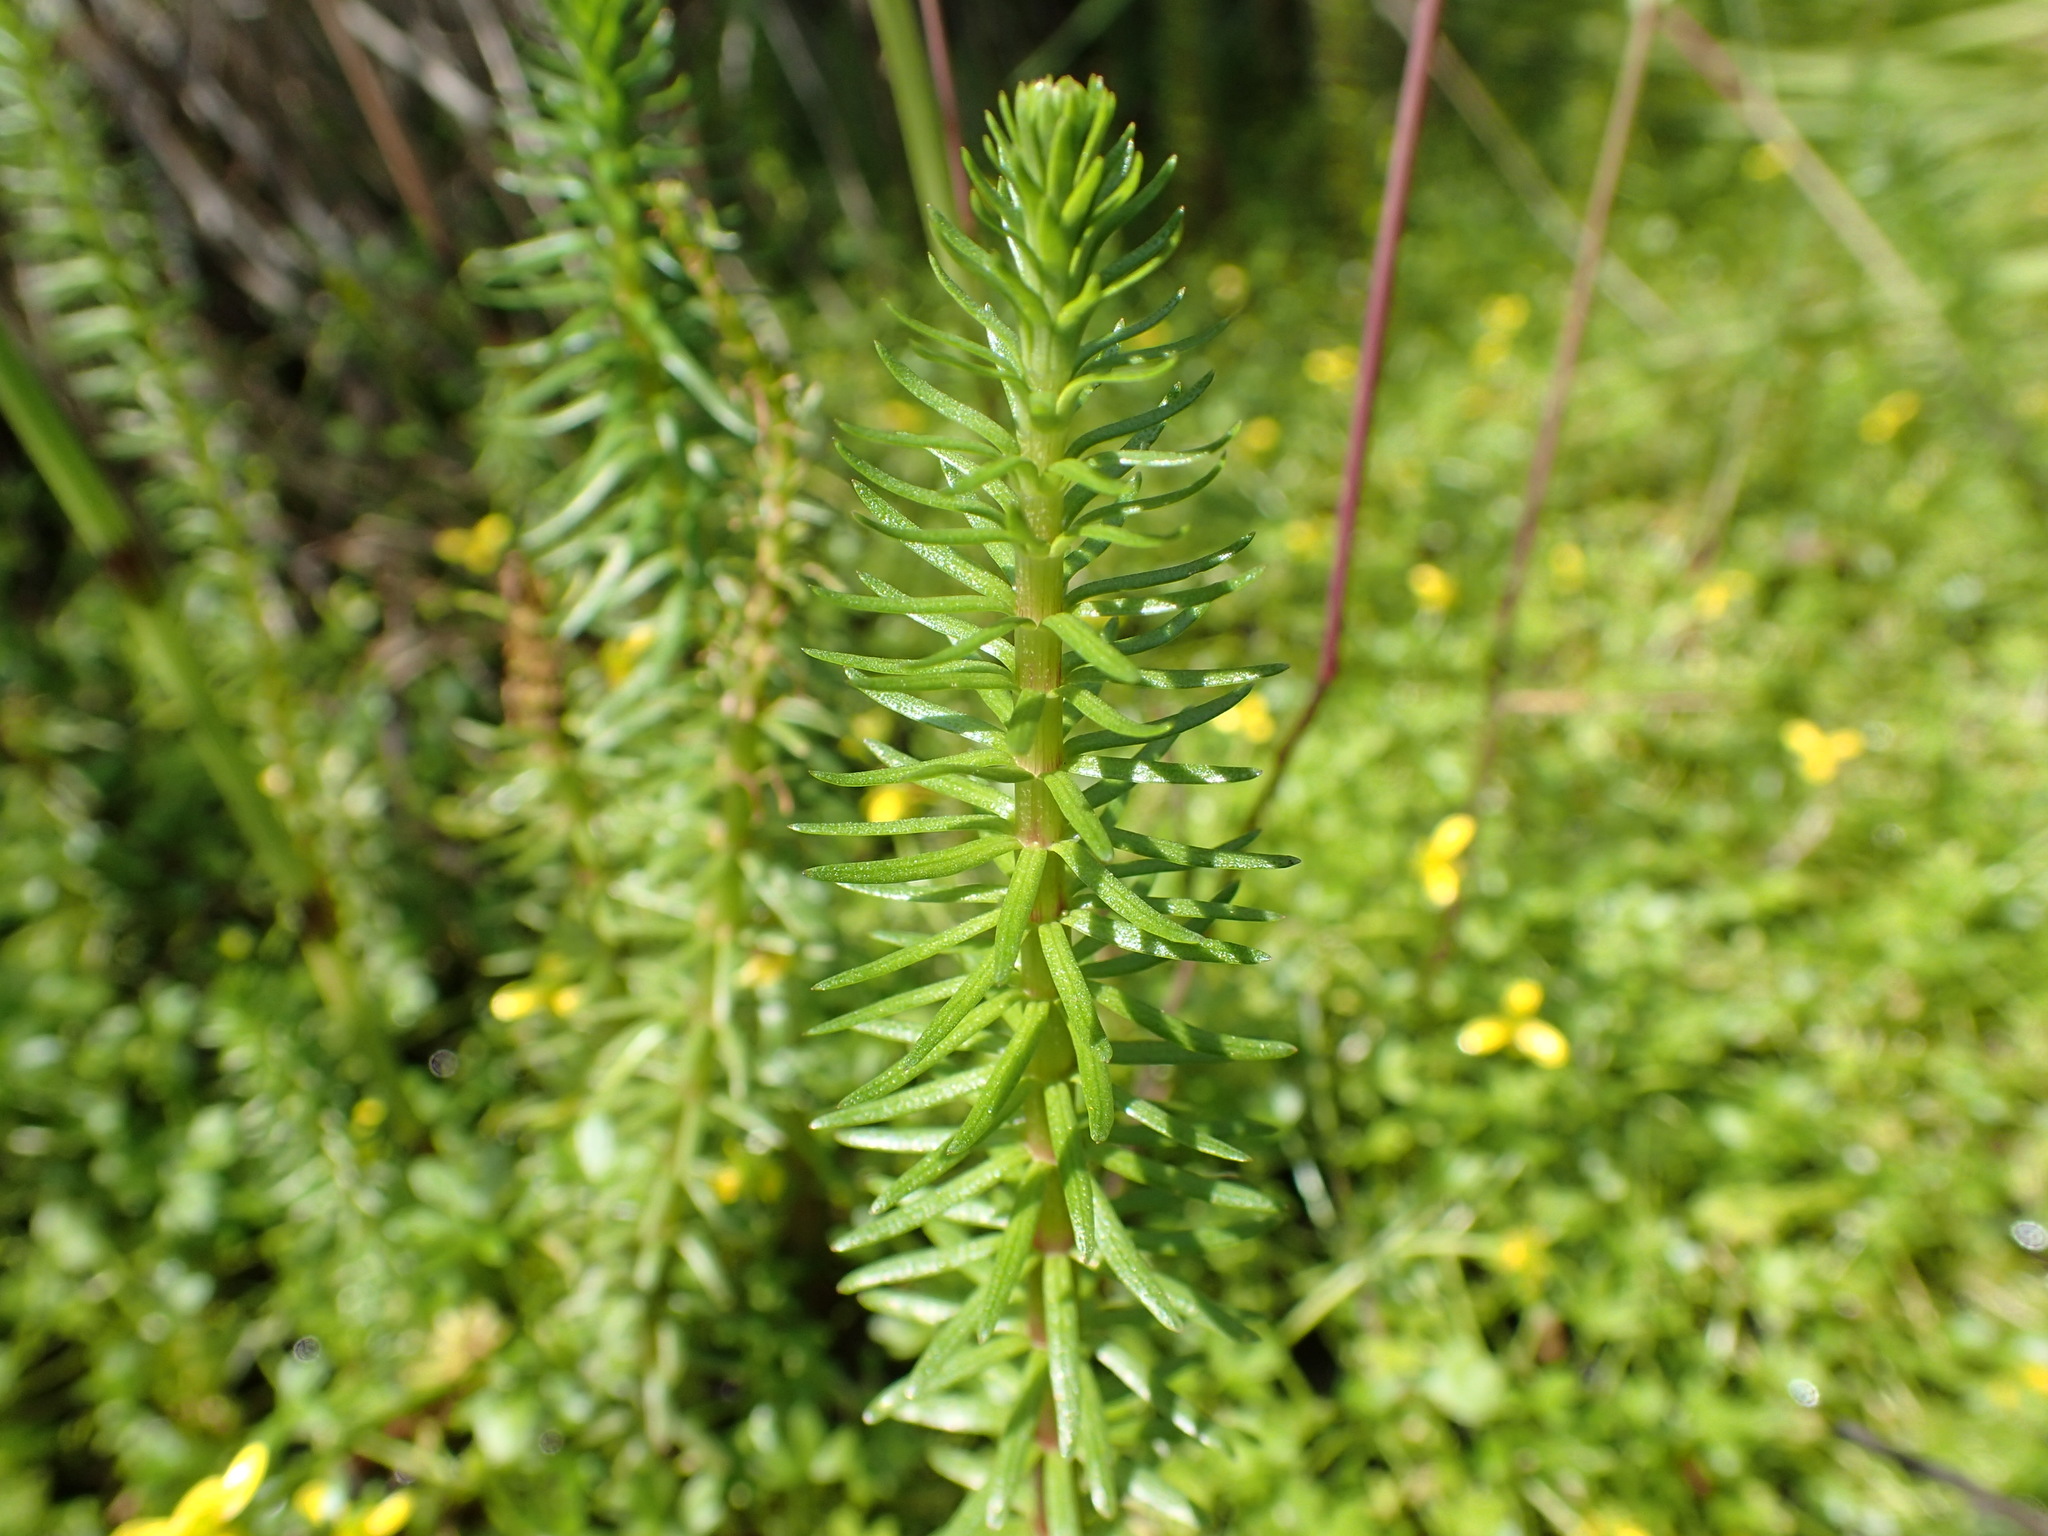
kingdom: Plantae
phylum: Tracheophyta
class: Magnoliopsida
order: Lamiales
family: Plantaginaceae
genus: Hippuris
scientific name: Hippuris vulgaris
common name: Mare's-tail
